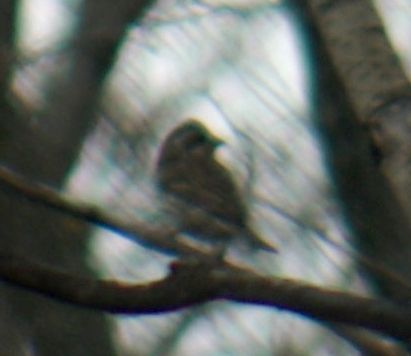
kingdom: Animalia
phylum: Chordata
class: Aves
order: Passeriformes
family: Fringillidae
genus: Haemorhous
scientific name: Haemorhous purpureus
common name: Purple finch
